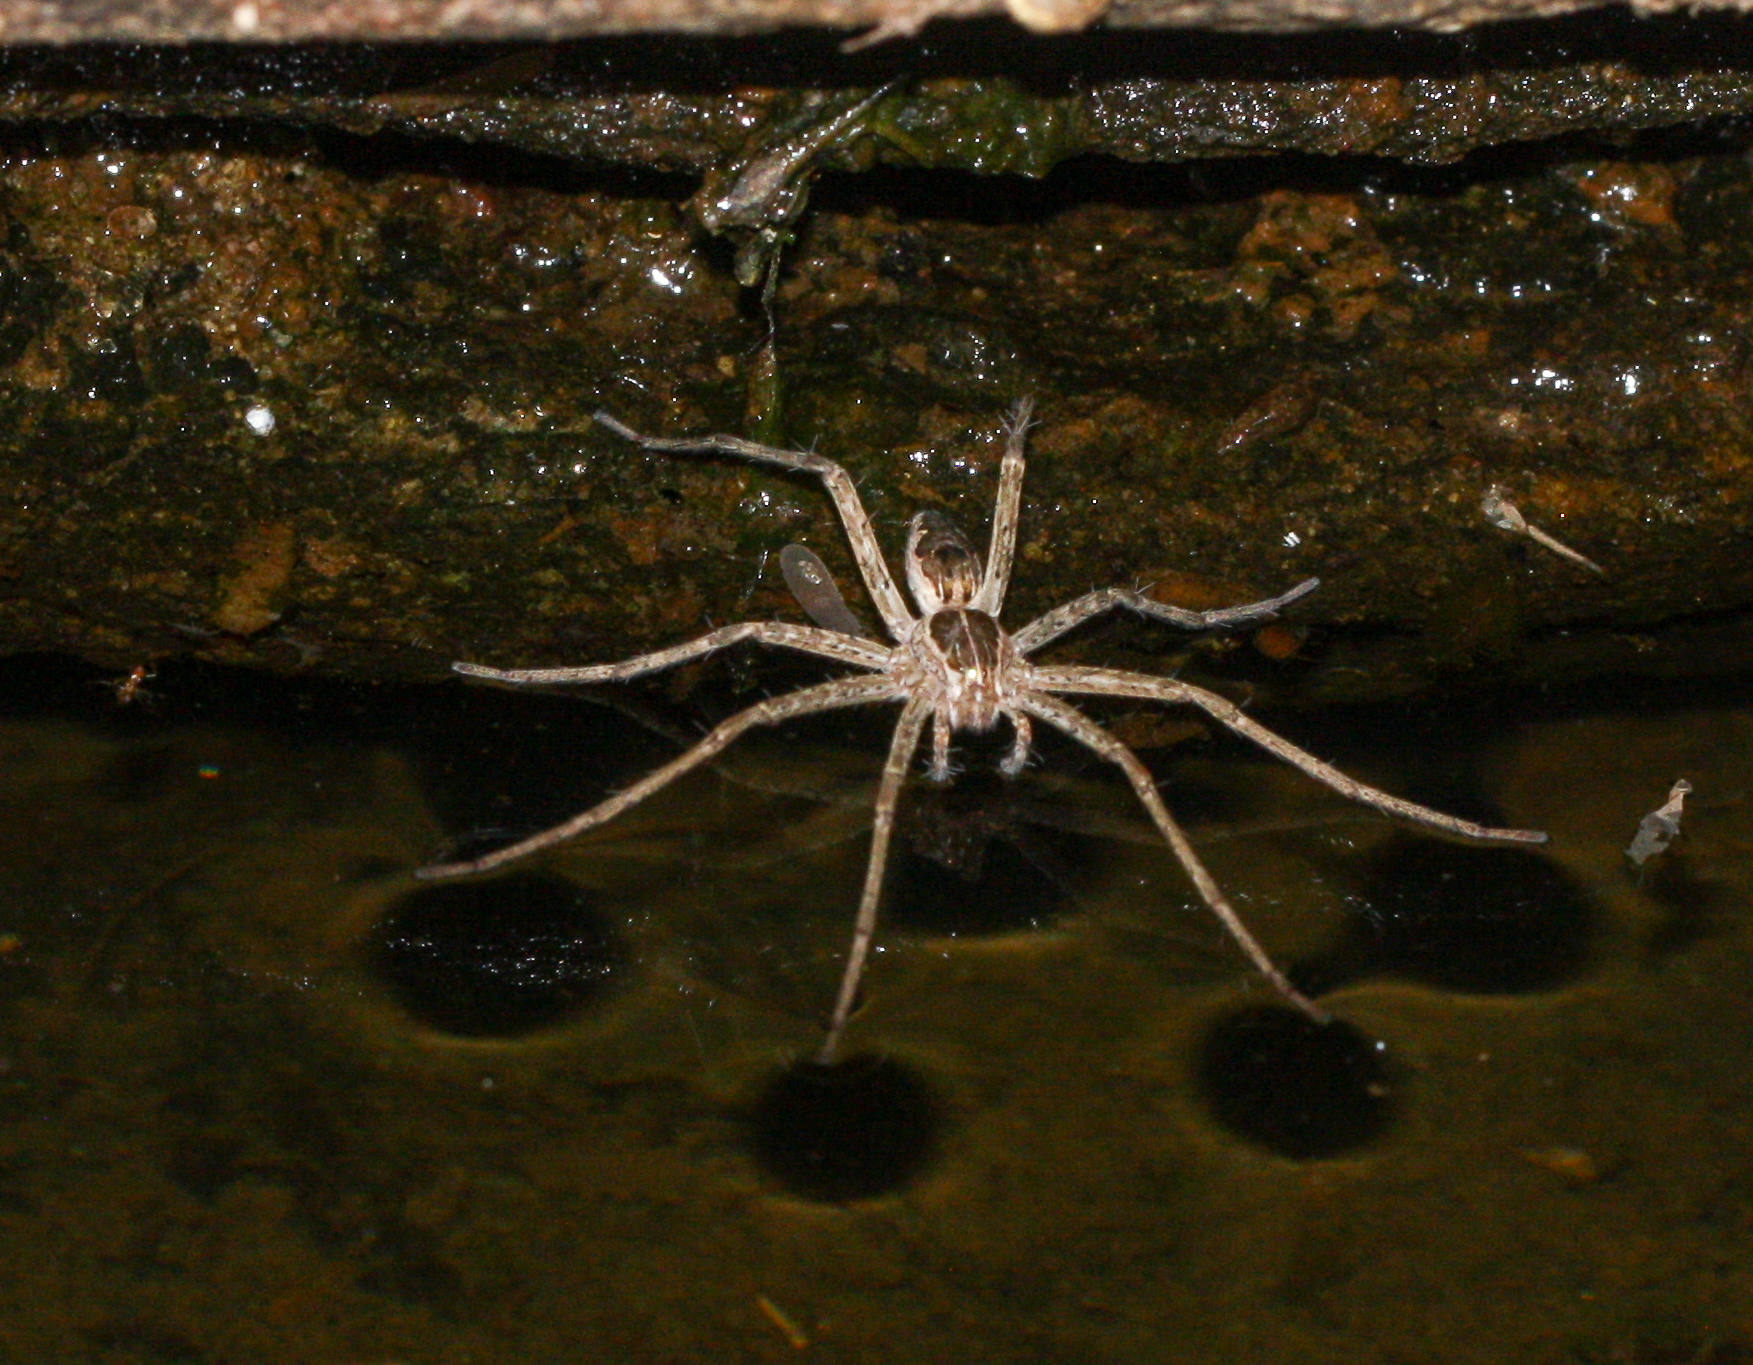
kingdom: Animalia
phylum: Arthropoda
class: Arachnida
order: Araneae
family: Pisauridae
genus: Tinus
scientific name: Tinus peregrinus
